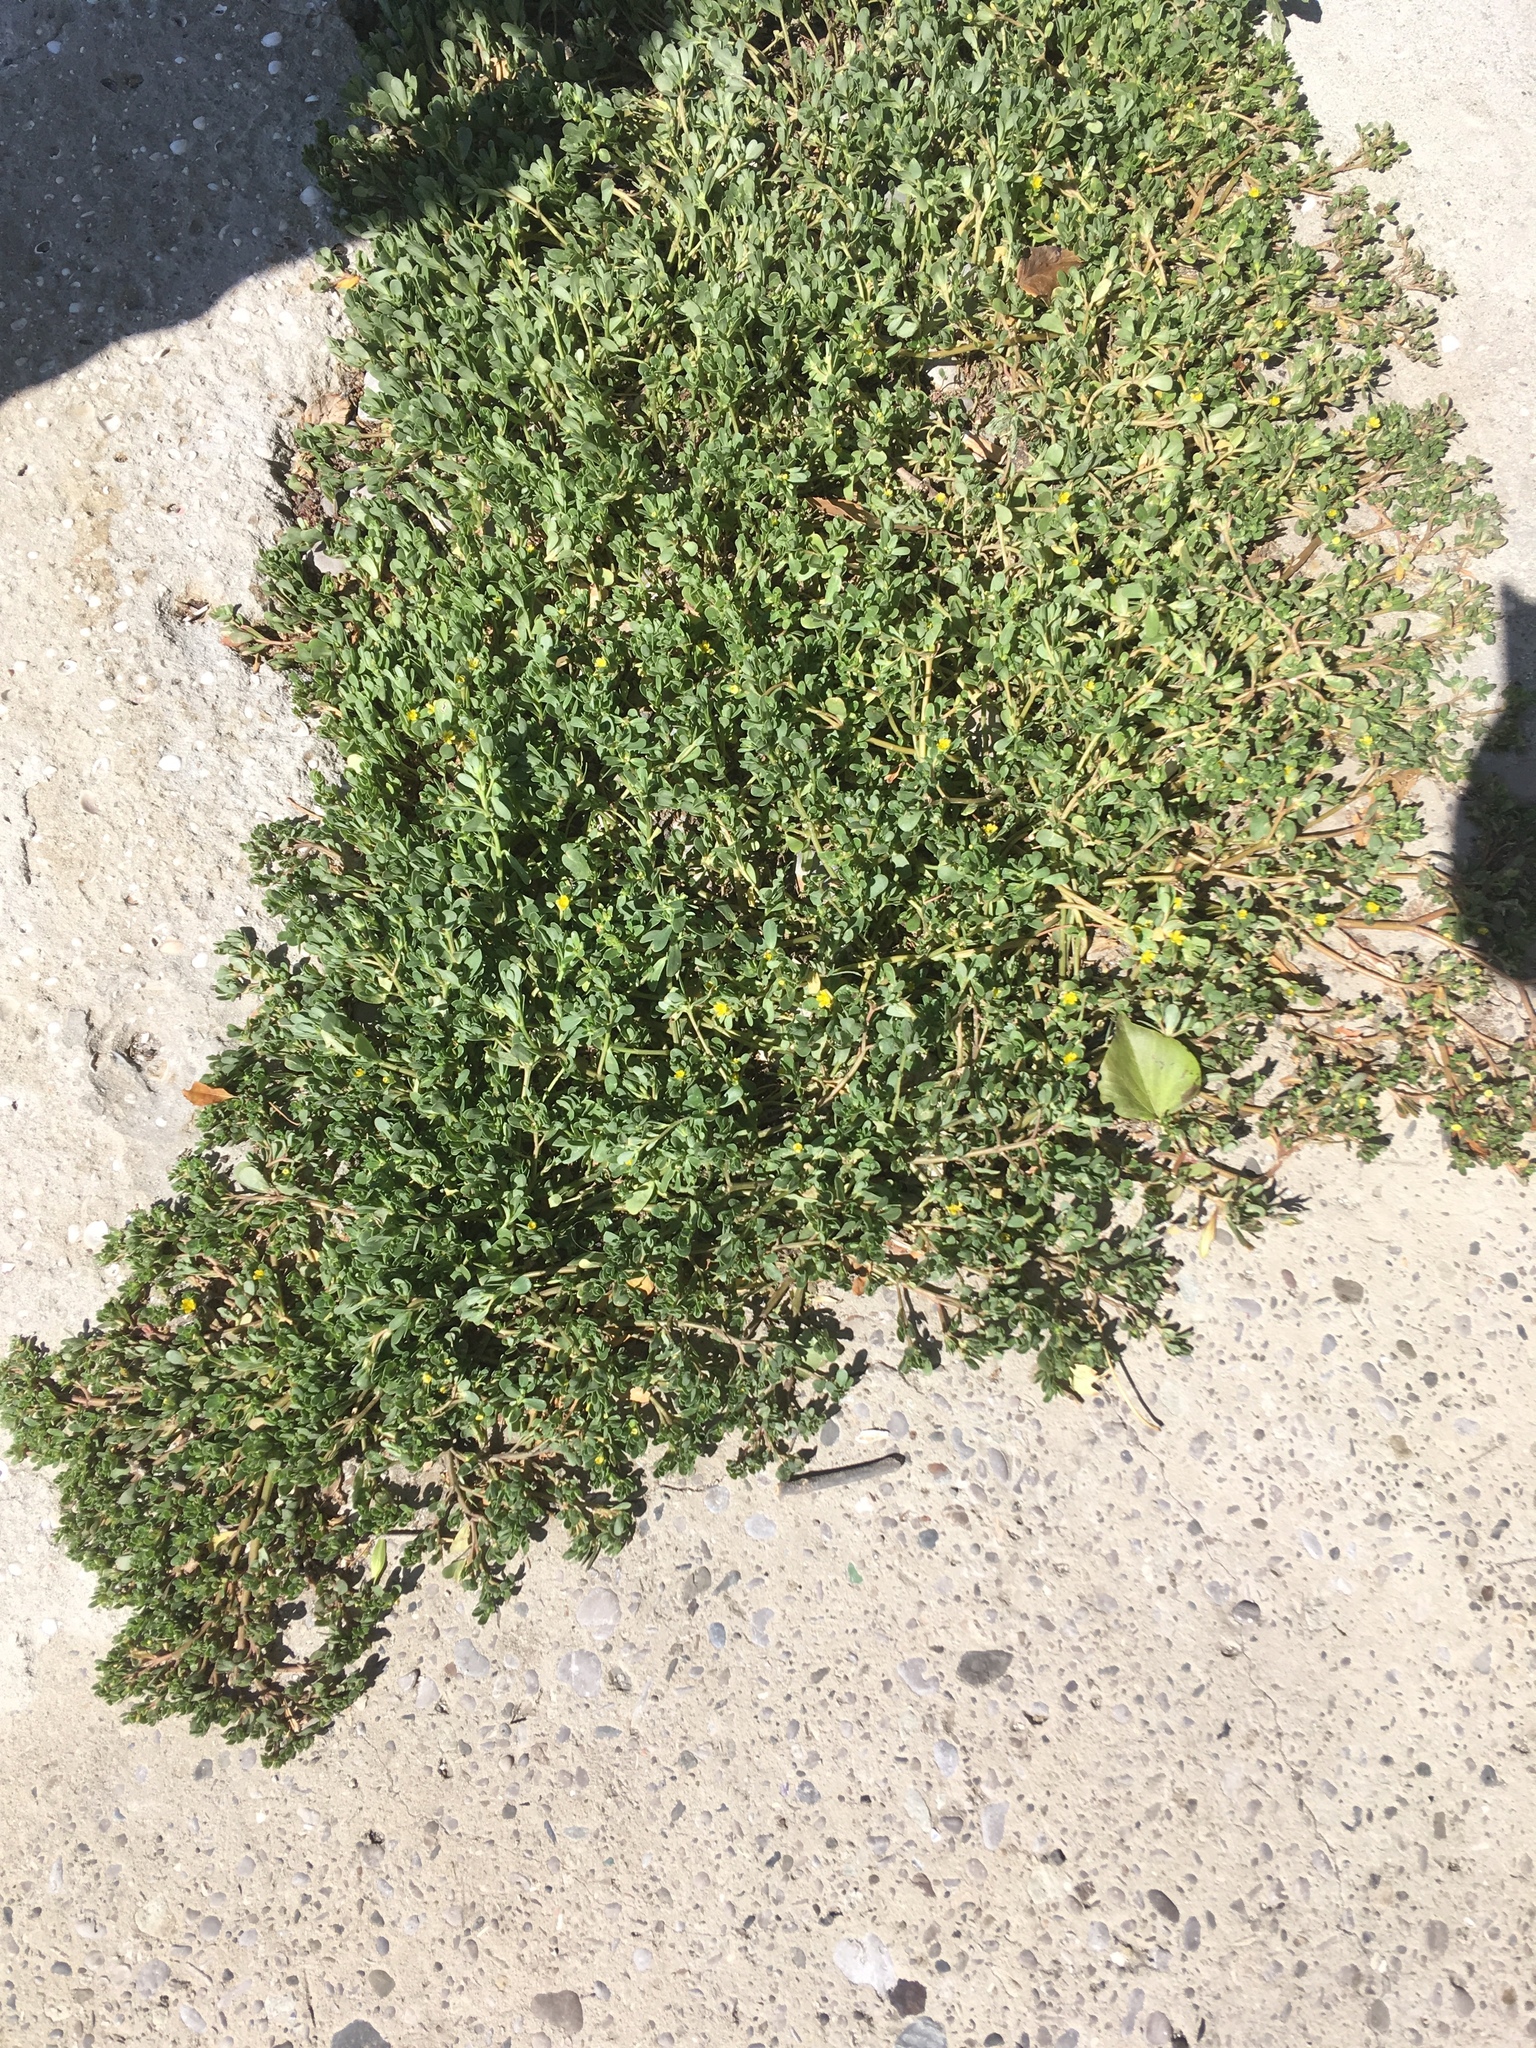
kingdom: Plantae
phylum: Tracheophyta
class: Magnoliopsida
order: Caryophyllales
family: Portulacaceae
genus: Portulaca
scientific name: Portulaca oleracea
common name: Common purslane
